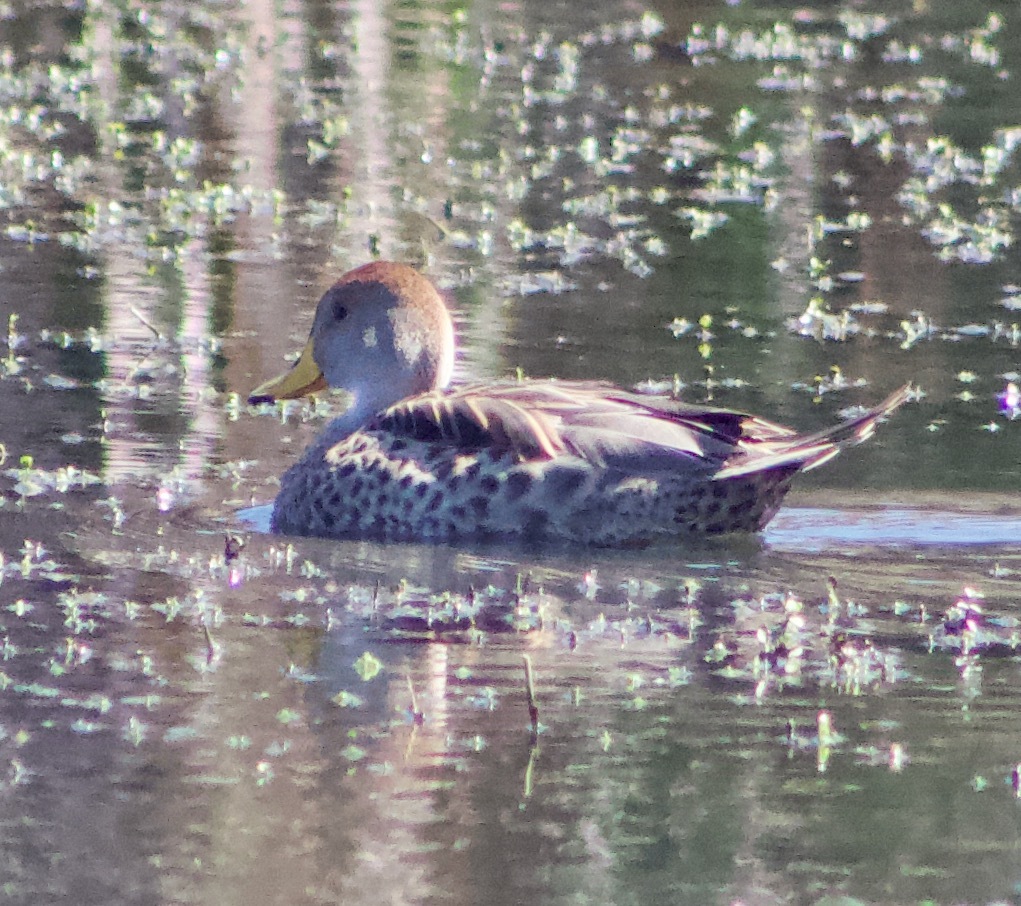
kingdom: Animalia
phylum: Chordata
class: Aves
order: Anseriformes
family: Anatidae
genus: Anas
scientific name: Anas georgica
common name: Yellow-billed pintail
